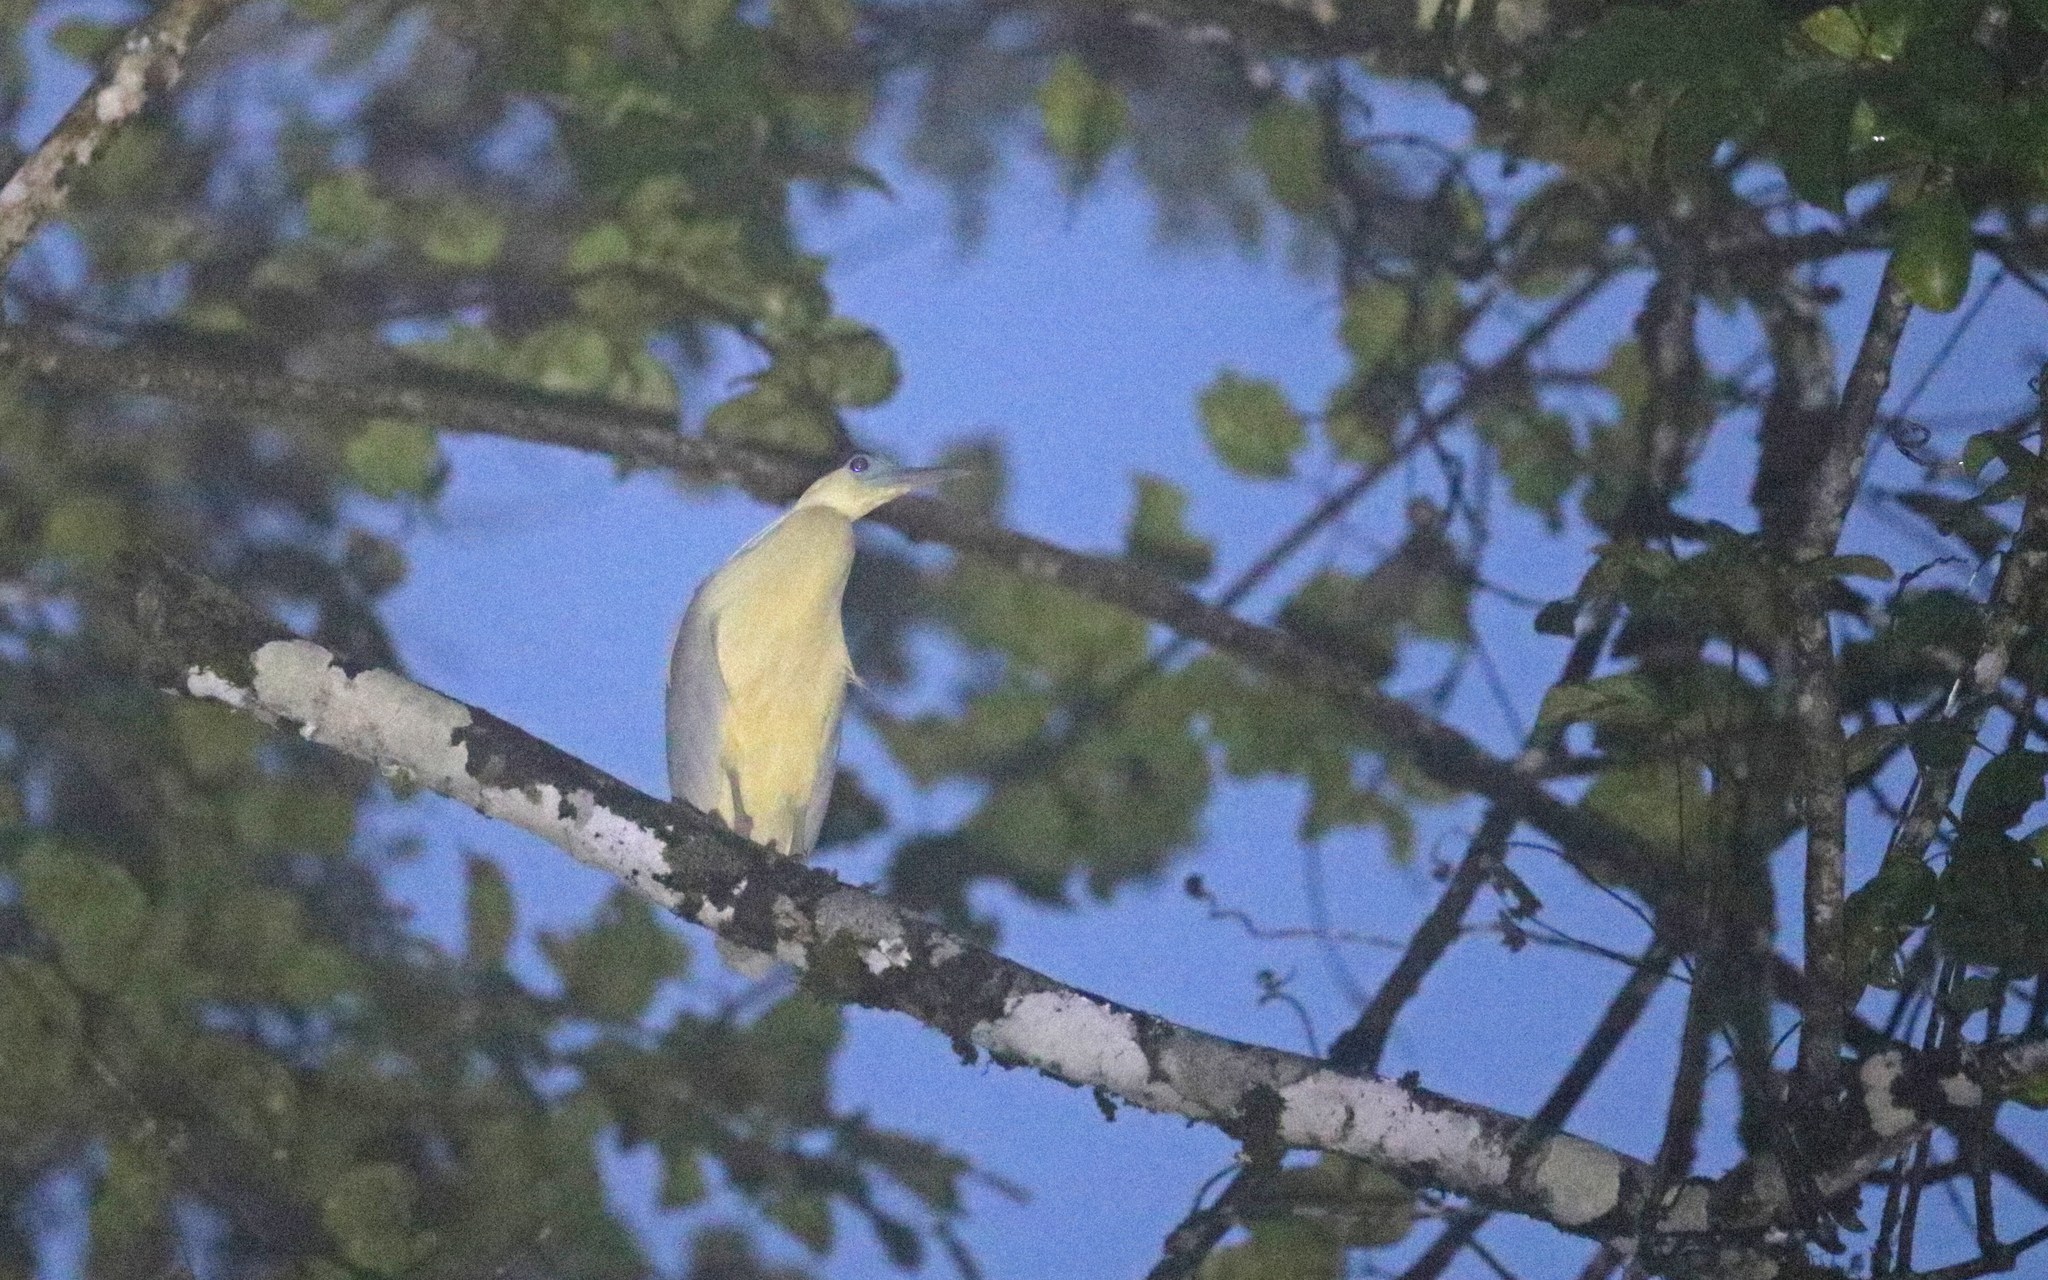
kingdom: Animalia
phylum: Chordata
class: Aves
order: Pelecaniformes
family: Ardeidae
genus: Pilherodius
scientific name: Pilherodius pileatus
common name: Capped heron
